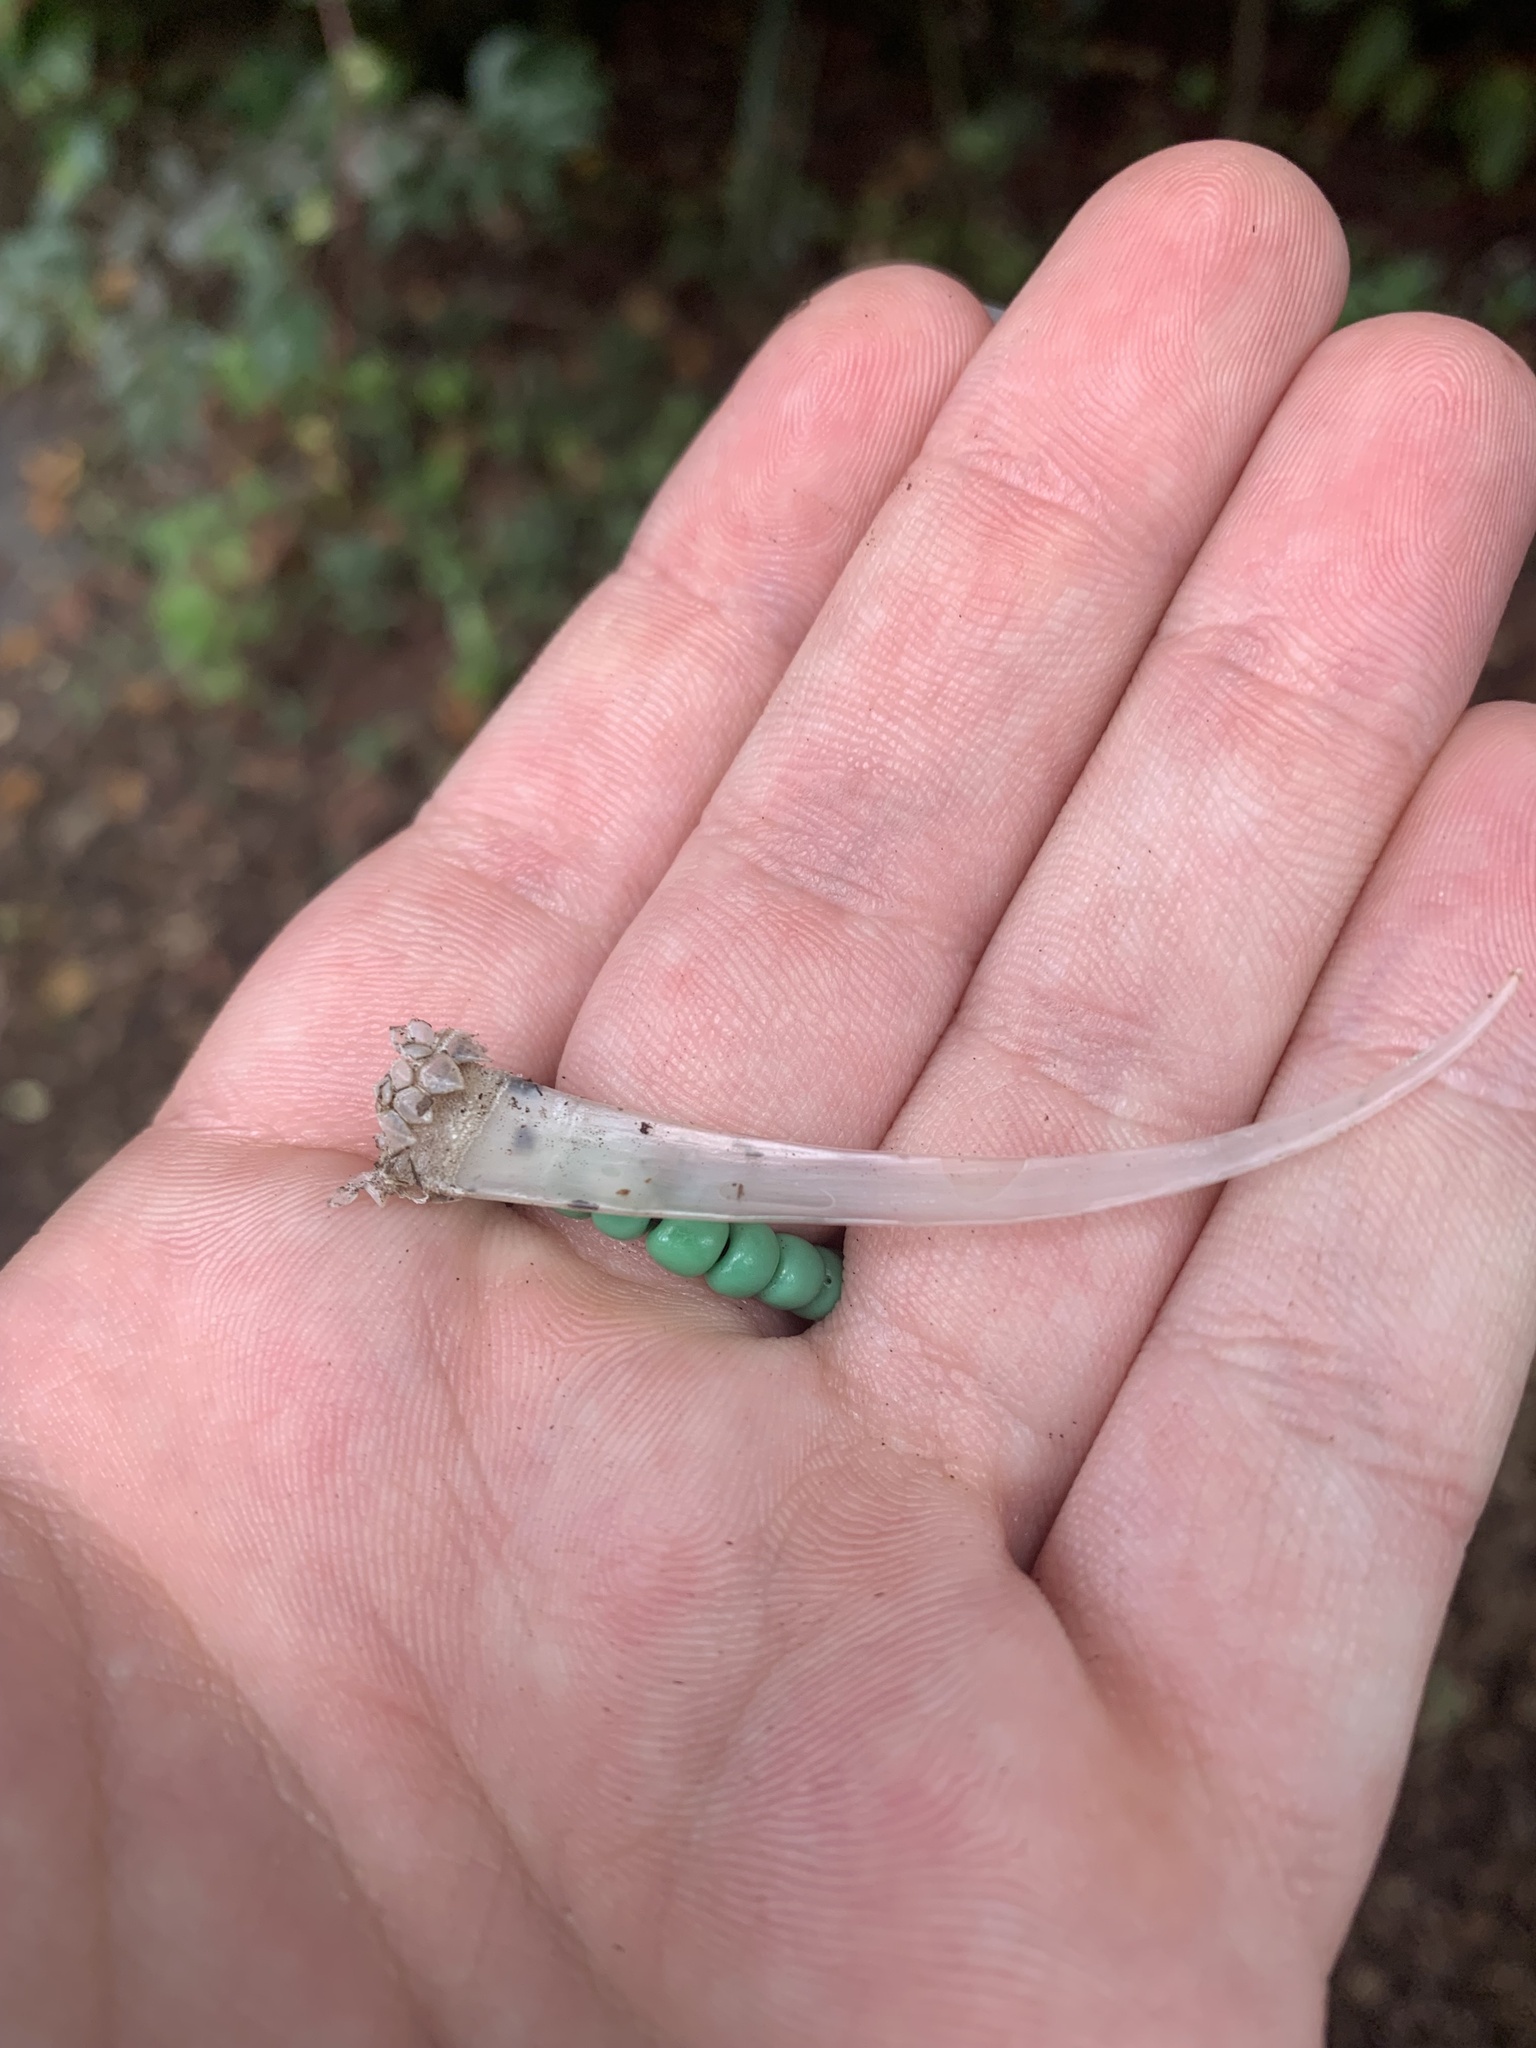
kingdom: Animalia
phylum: Chordata
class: Squamata
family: Iguanidae
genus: Iguana
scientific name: Iguana iguana
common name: Green iguana
